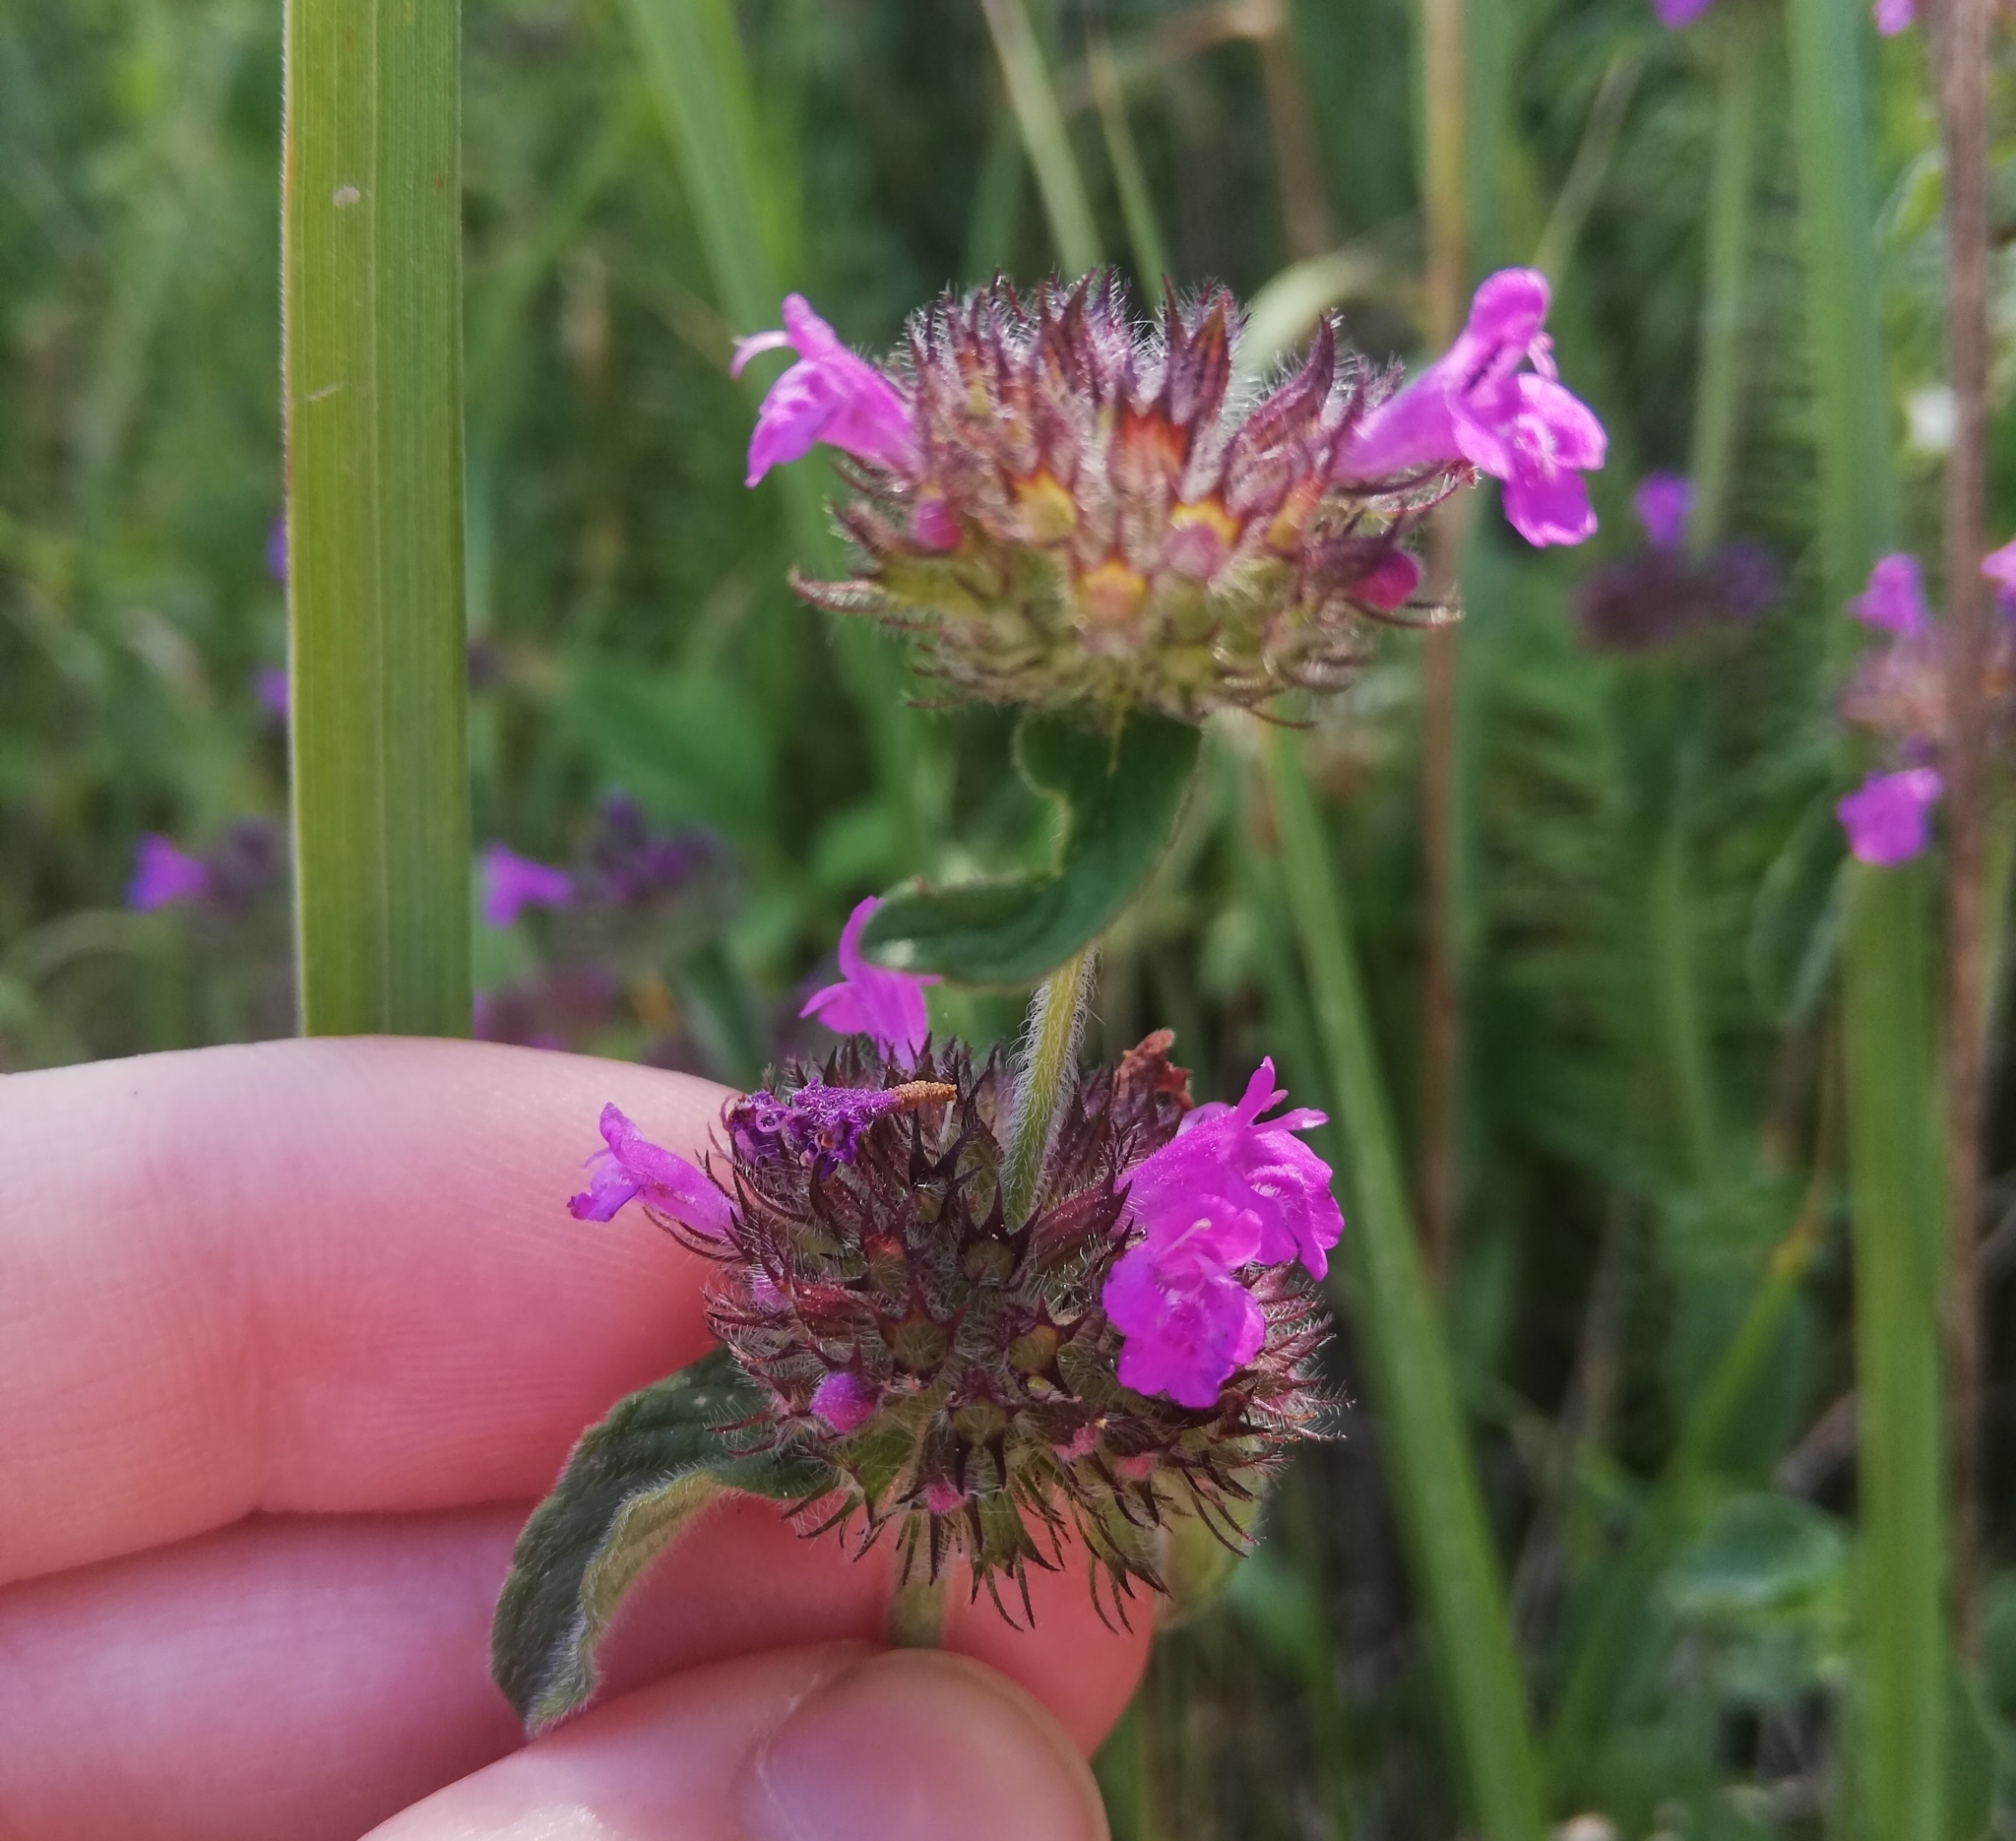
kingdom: Plantae
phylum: Tracheophyta
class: Magnoliopsida
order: Lamiales
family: Lamiaceae
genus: Clinopodium
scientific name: Clinopodium vulgare
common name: Wild basil
